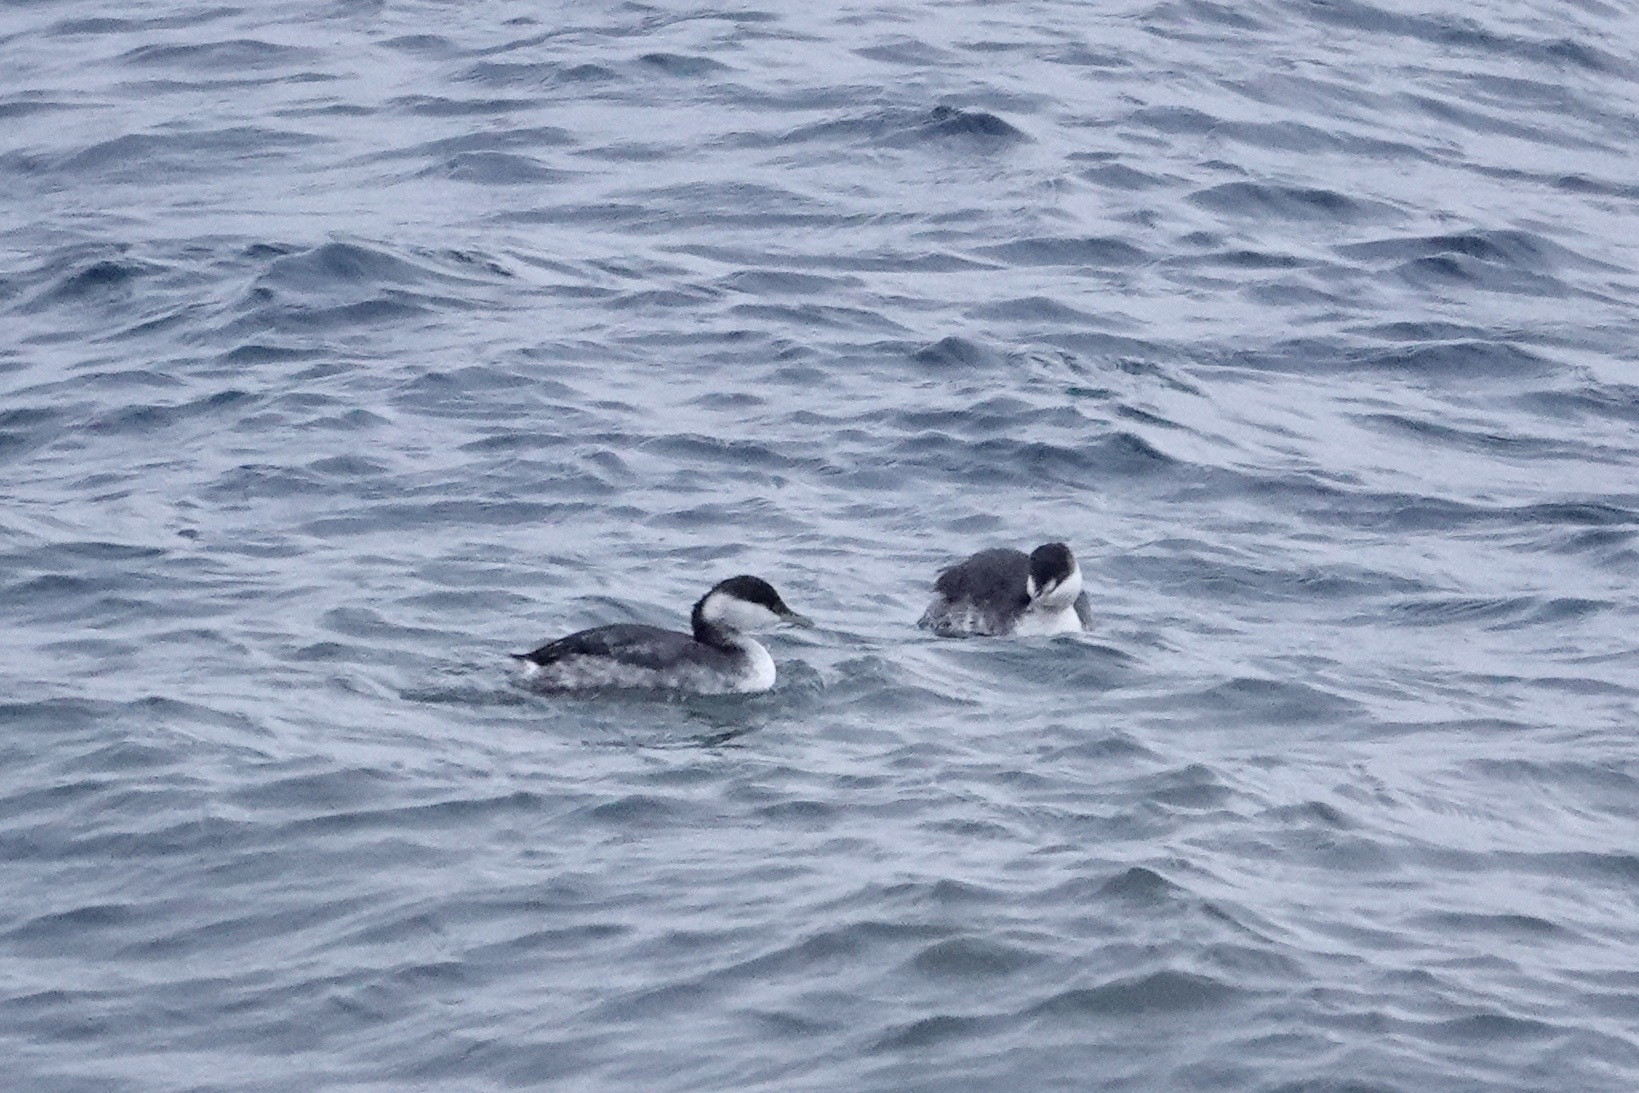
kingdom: Animalia
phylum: Chordata
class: Aves
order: Podicipediformes
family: Podicipedidae
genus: Podiceps
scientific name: Podiceps auritus
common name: Horned grebe
